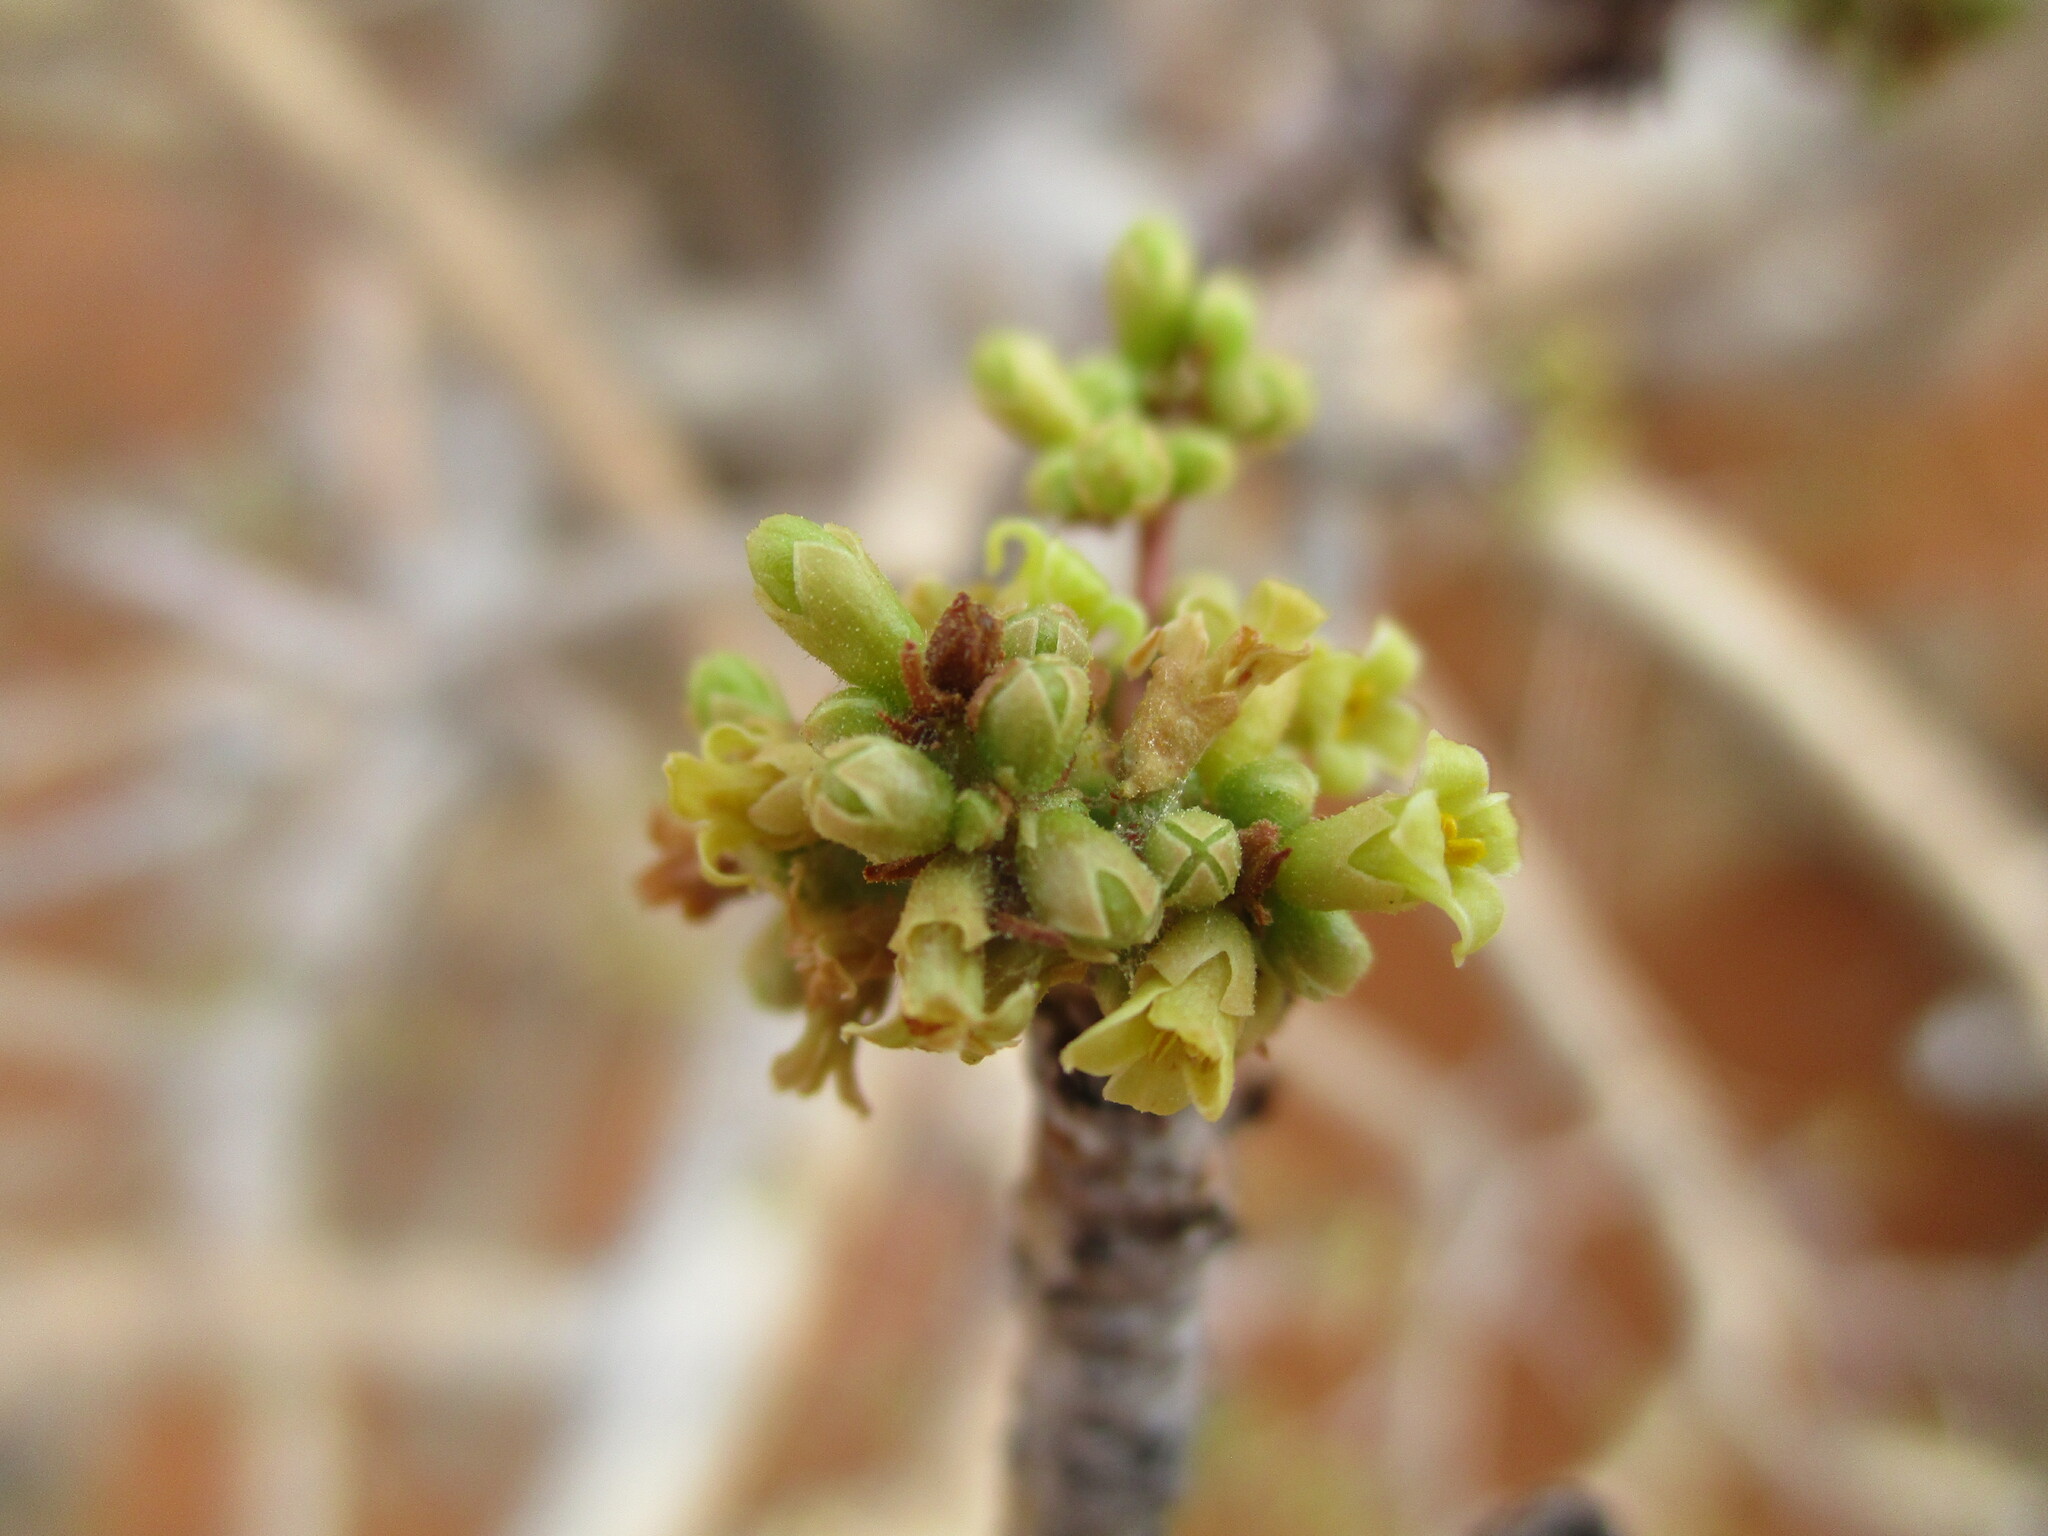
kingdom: Plantae
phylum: Tracheophyta
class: Magnoliopsida
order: Sapindales
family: Burseraceae
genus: Commiphora
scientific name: Commiphora saxicola
